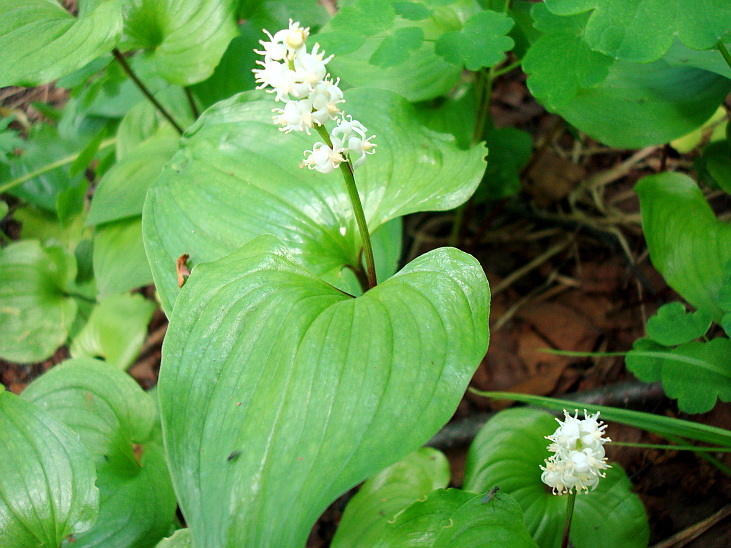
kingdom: Plantae
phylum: Tracheophyta
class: Liliopsida
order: Asparagales
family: Asparagaceae
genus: Maianthemum
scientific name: Maianthemum dilatatum
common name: False lily-of-the-valley
